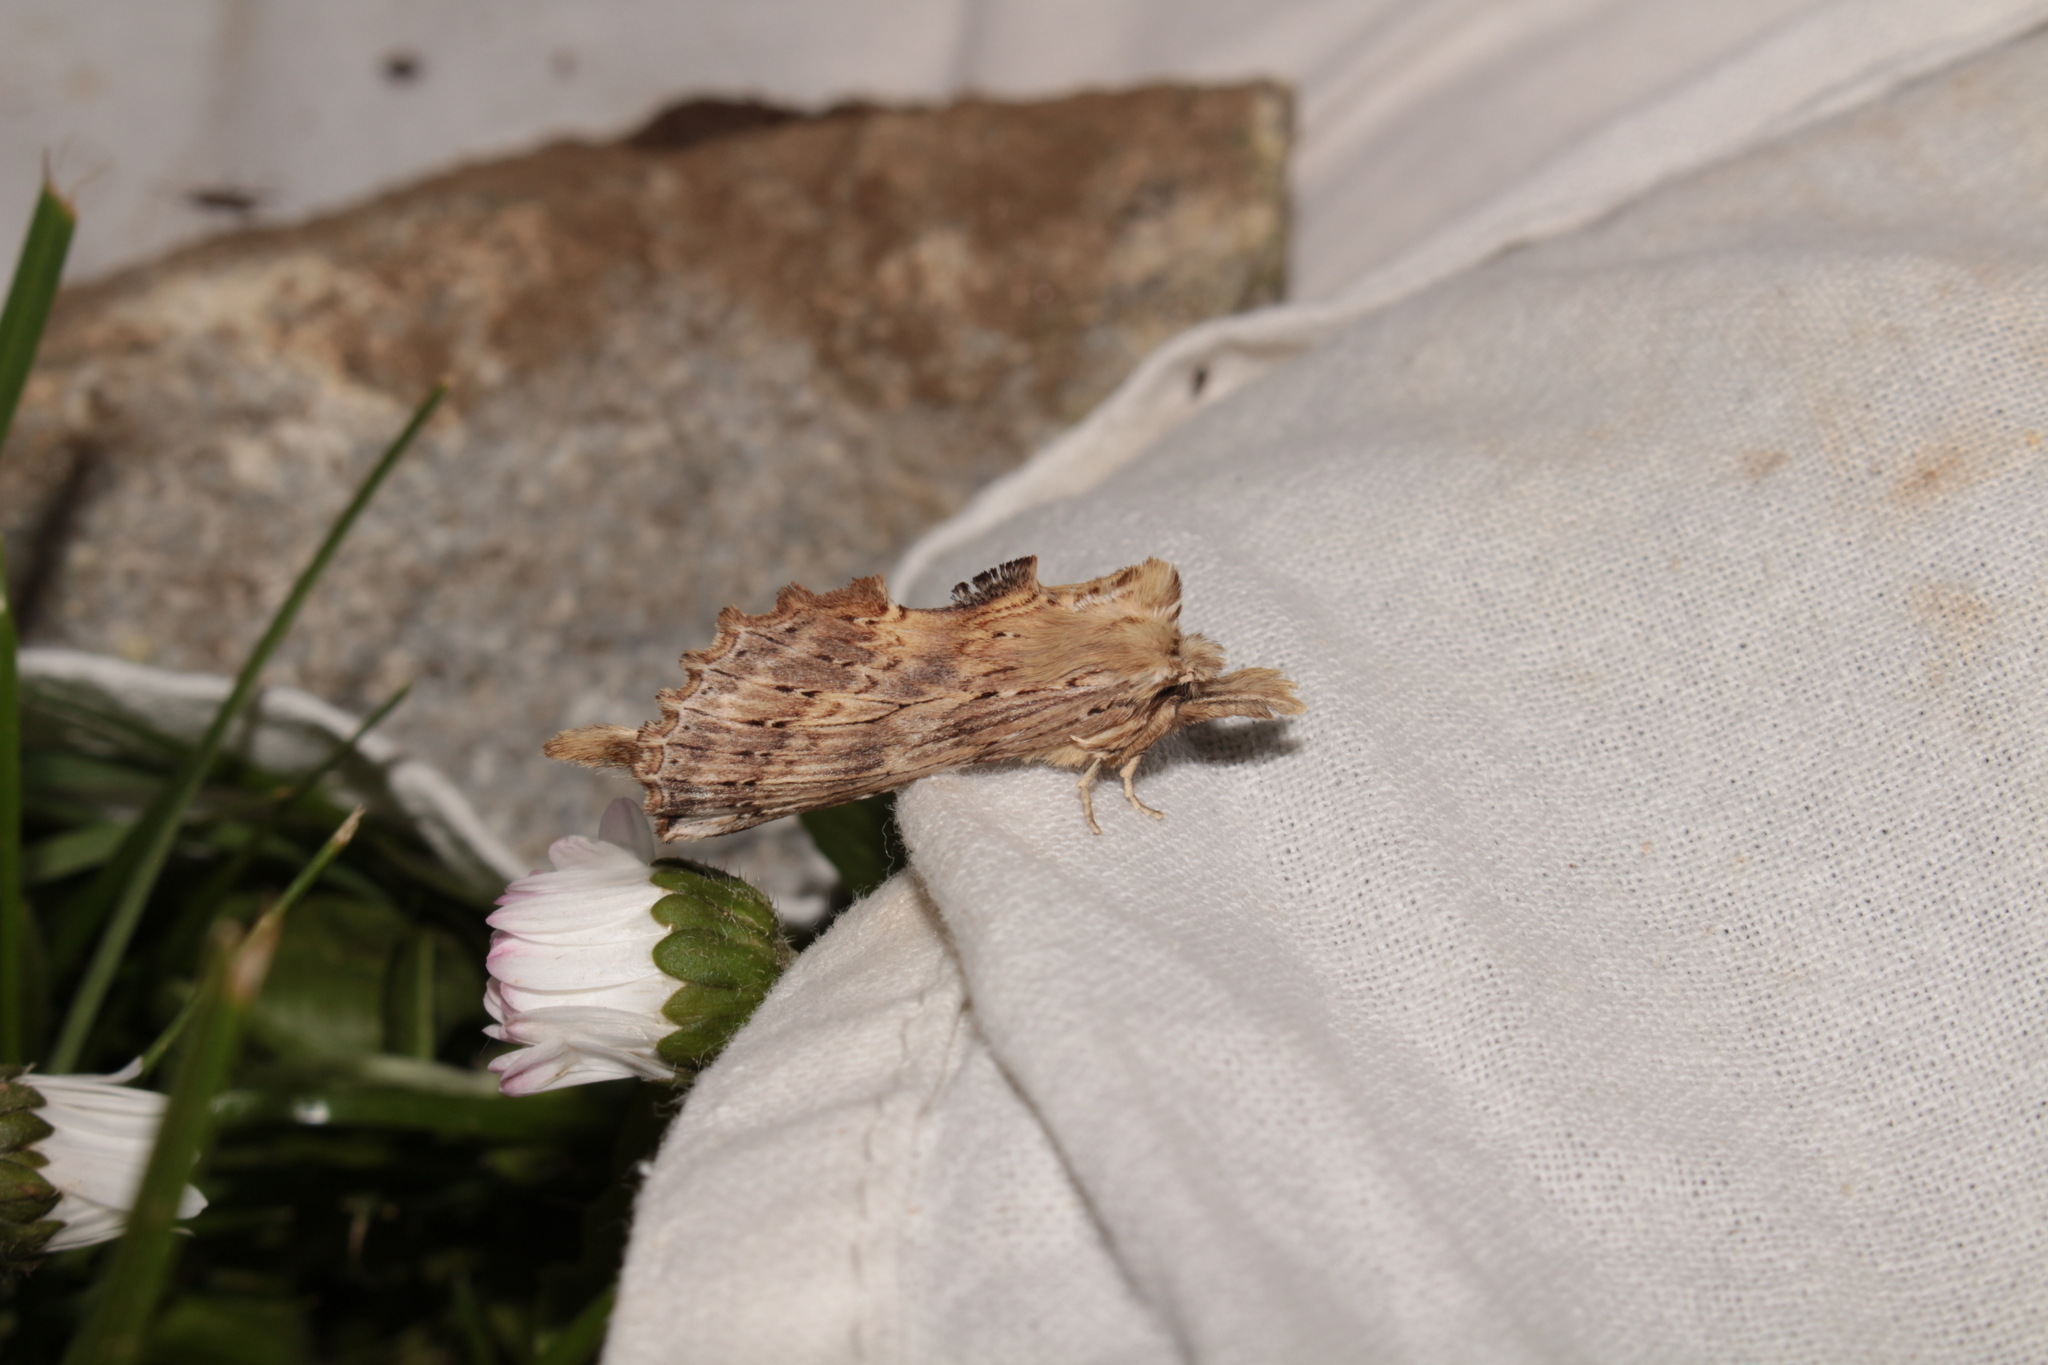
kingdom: Animalia
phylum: Arthropoda
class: Insecta
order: Lepidoptera
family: Notodontidae
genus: Pterostoma
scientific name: Pterostoma palpina
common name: Pale prominent
